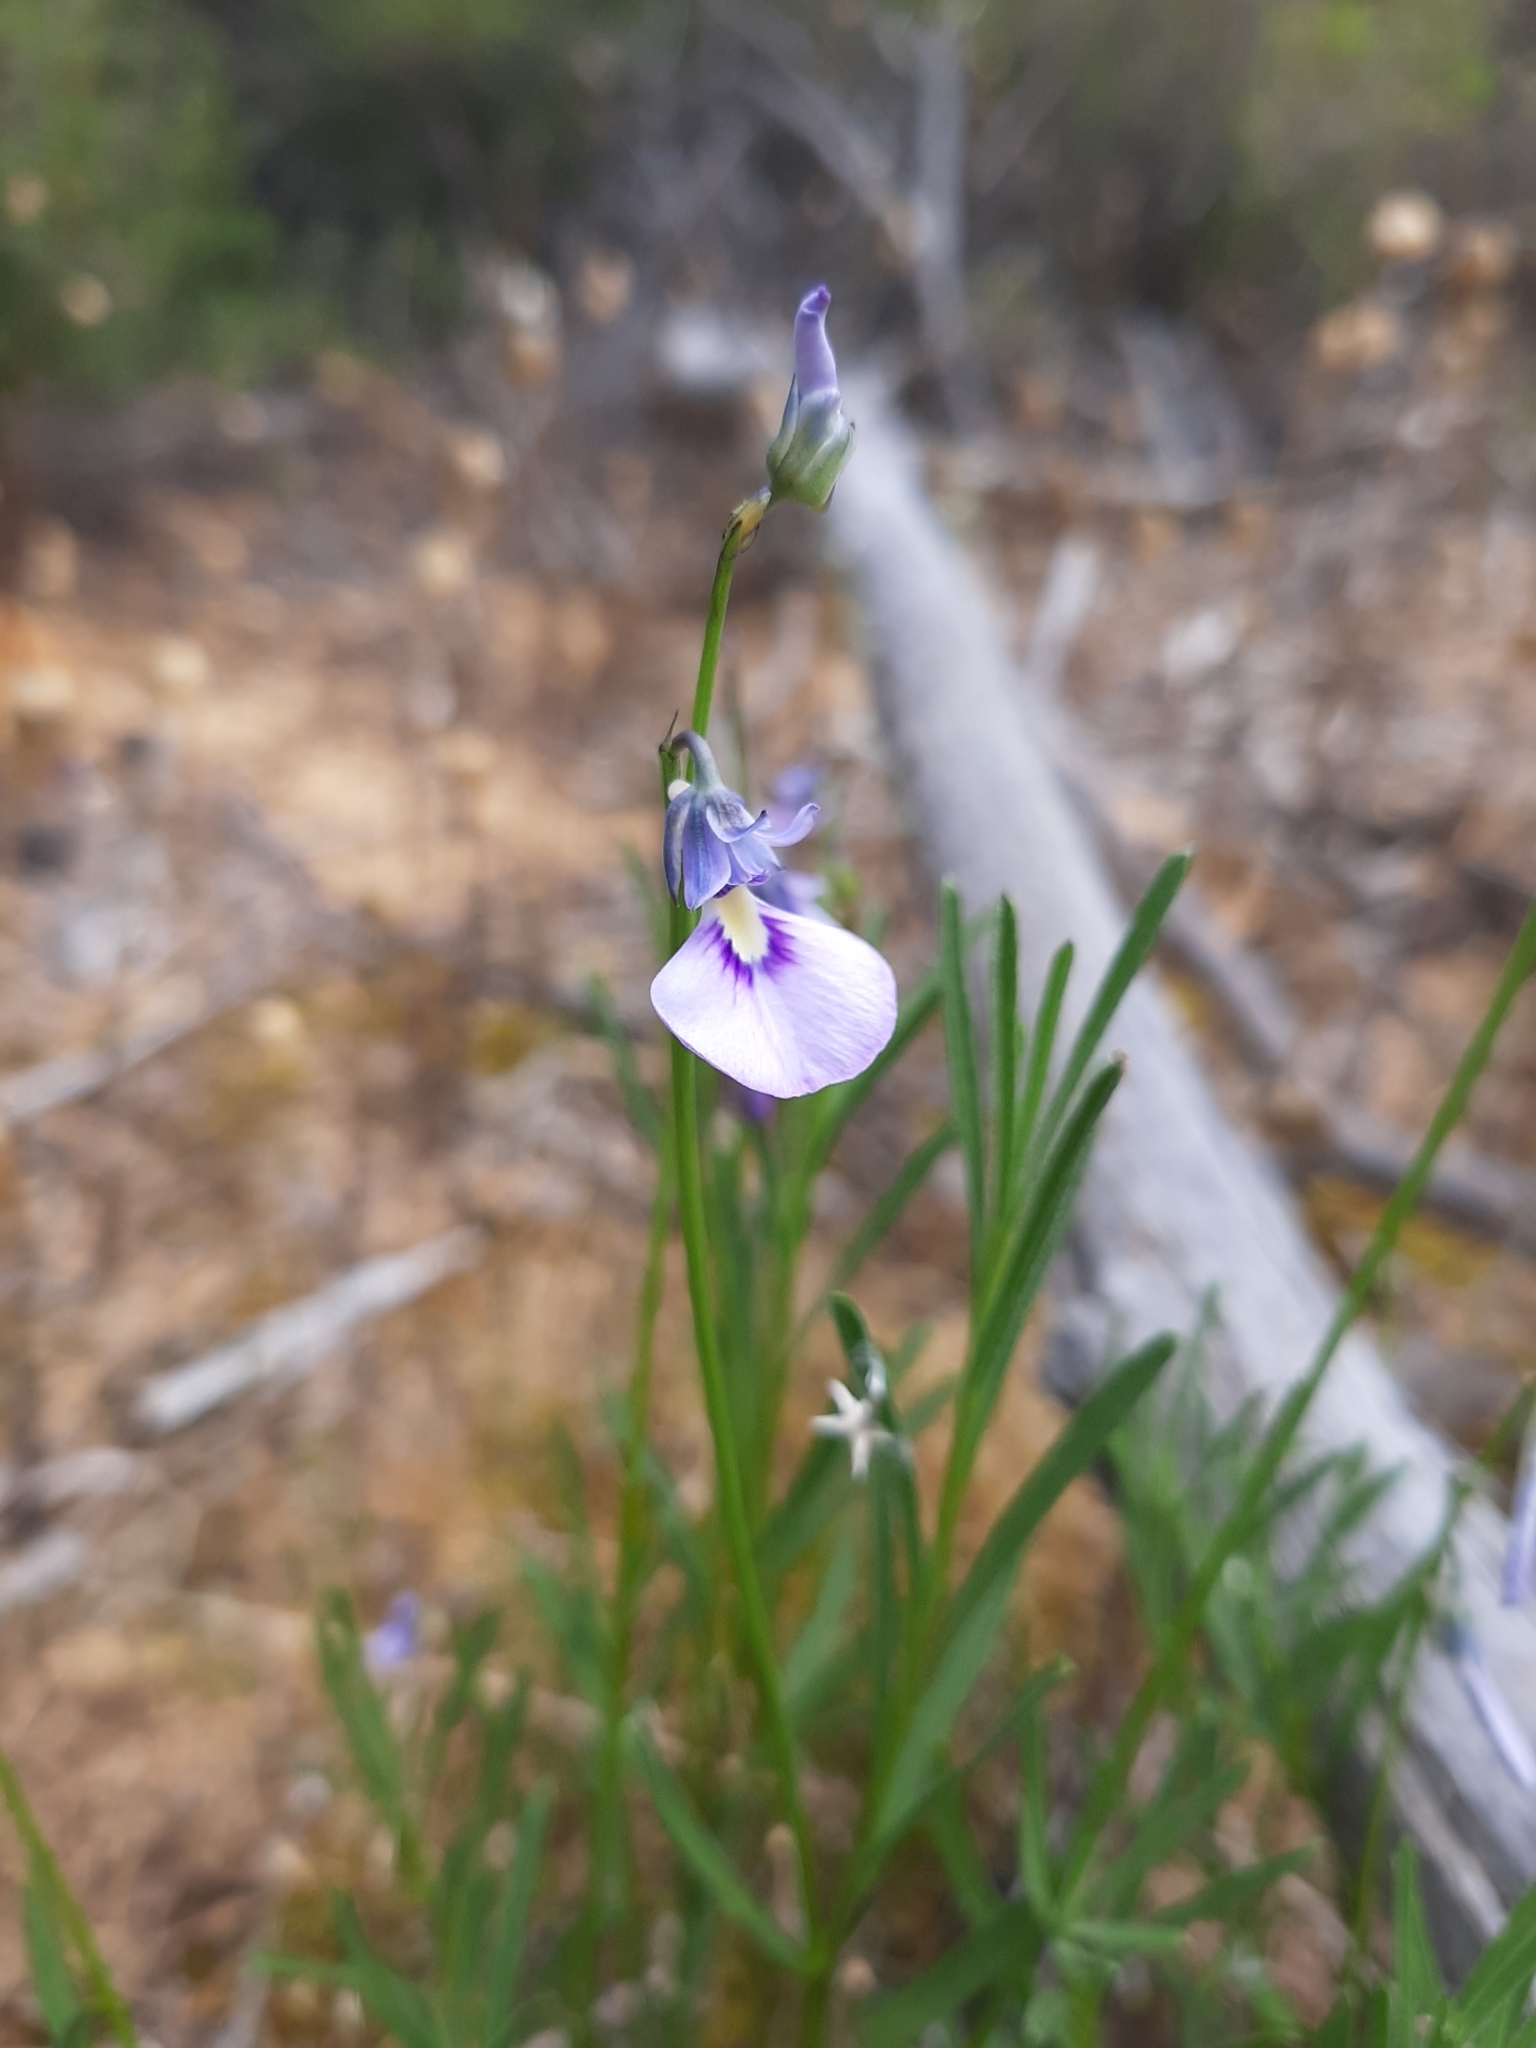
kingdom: Plantae
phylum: Tracheophyta
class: Magnoliopsida
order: Malpighiales
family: Violaceae
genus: Pigea
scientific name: Pigea calycina
